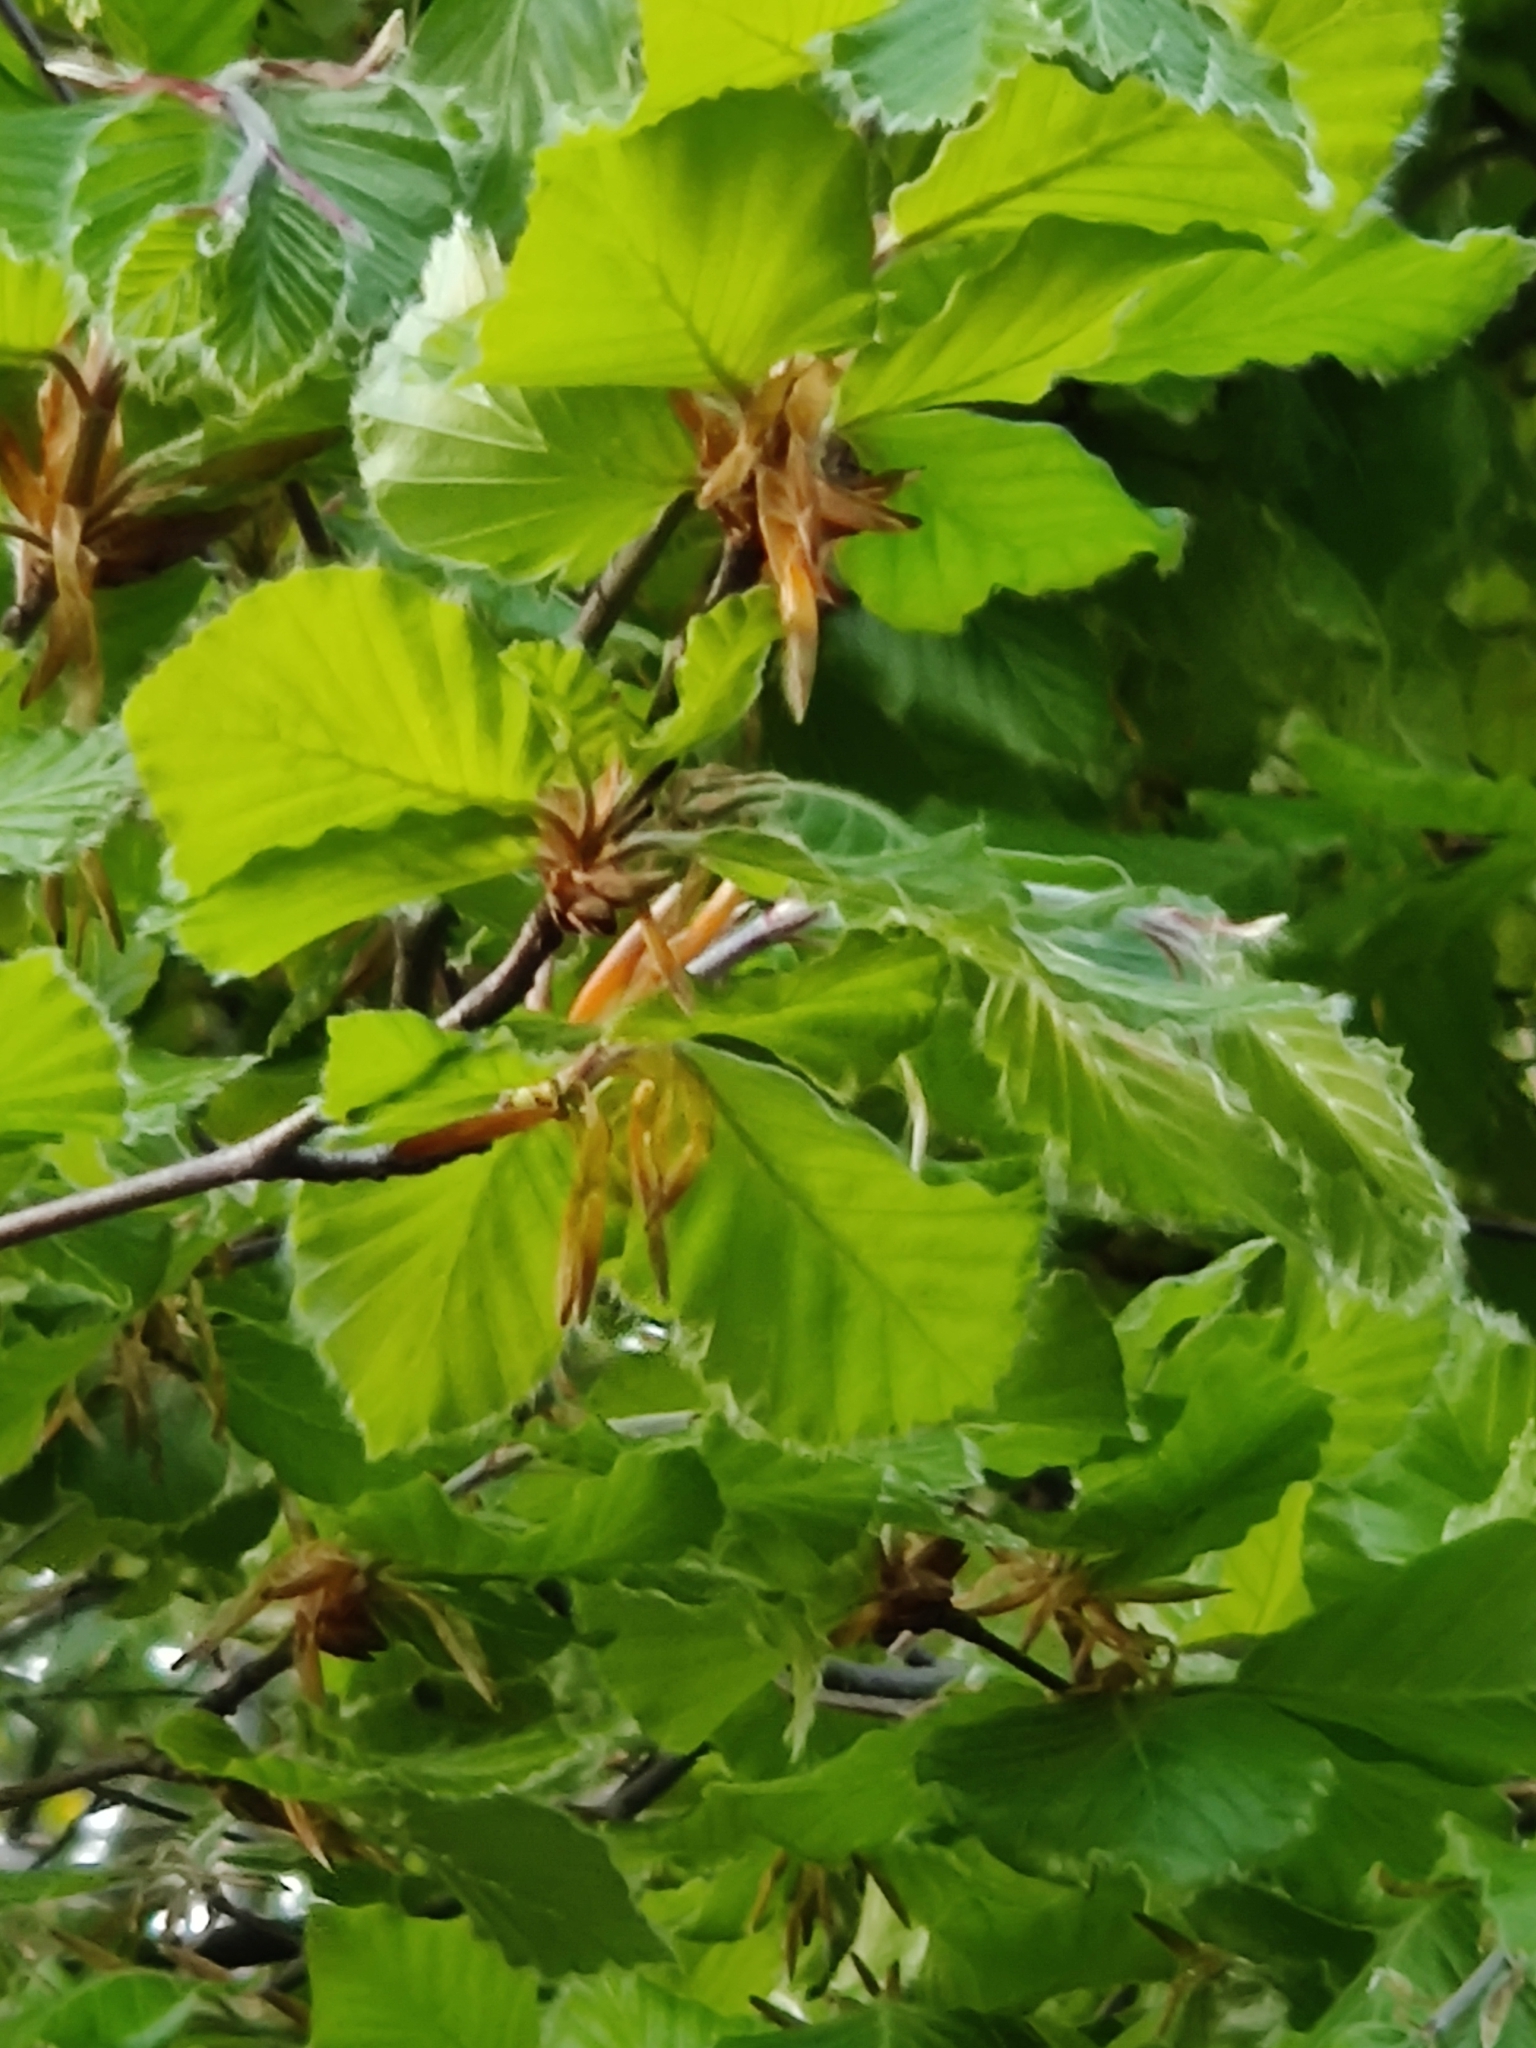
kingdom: Plantae
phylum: Tracheophyta
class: Magnoliopsida
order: Fagales
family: Fagaceae
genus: Fagus
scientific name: Fagus sylvatica
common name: Beech
